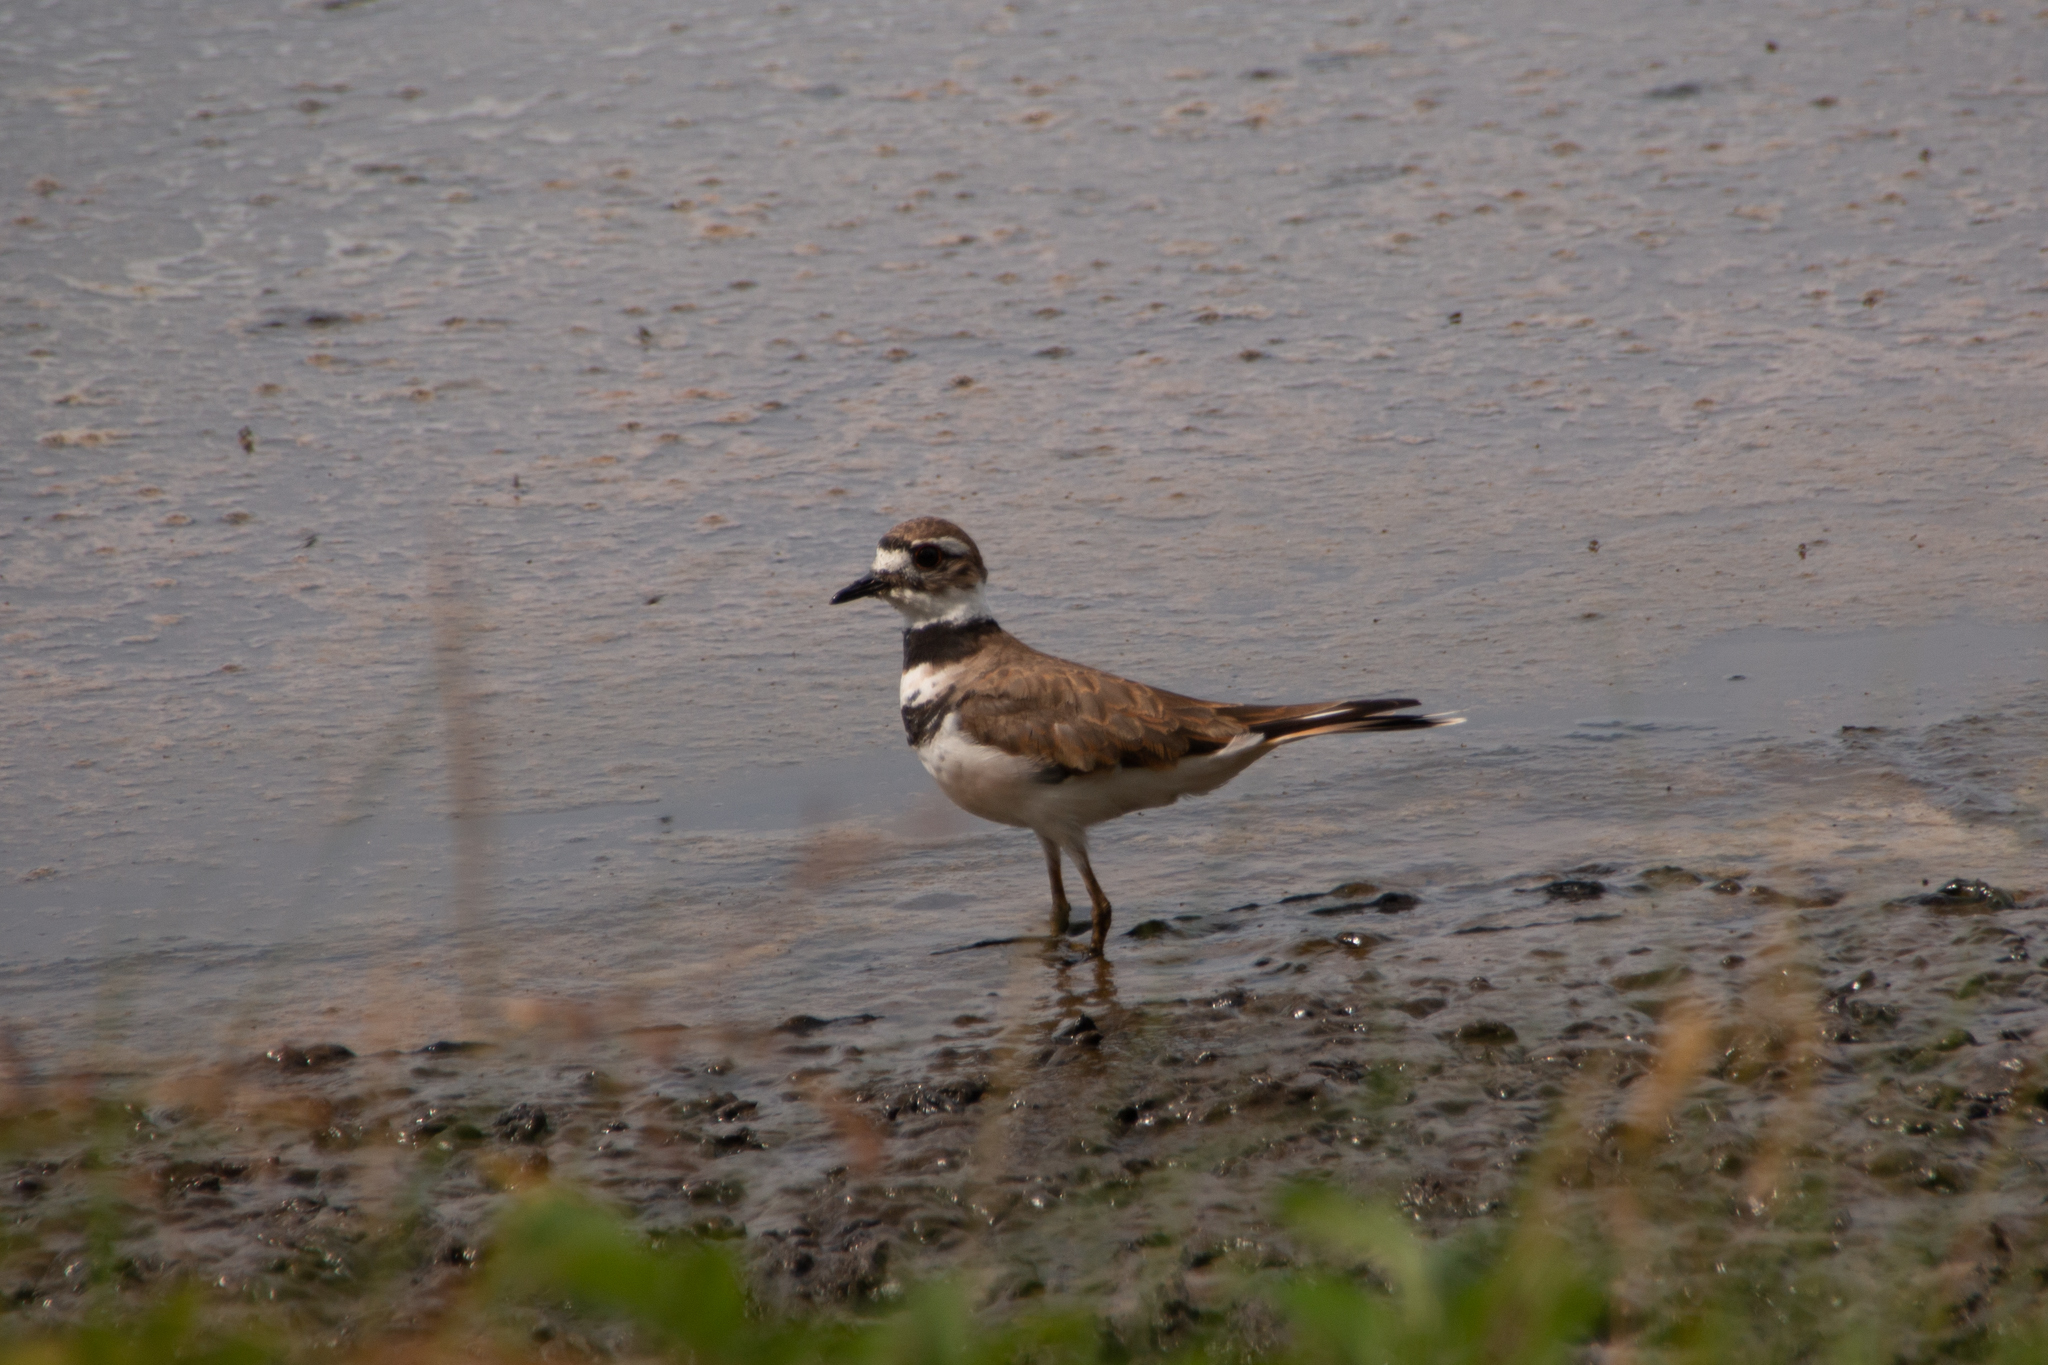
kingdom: Animalia
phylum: Chordata
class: Aves
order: Charadriiformes
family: Charadriidae
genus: Charadrius
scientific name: Charadrius vociferus
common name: Killdeer
